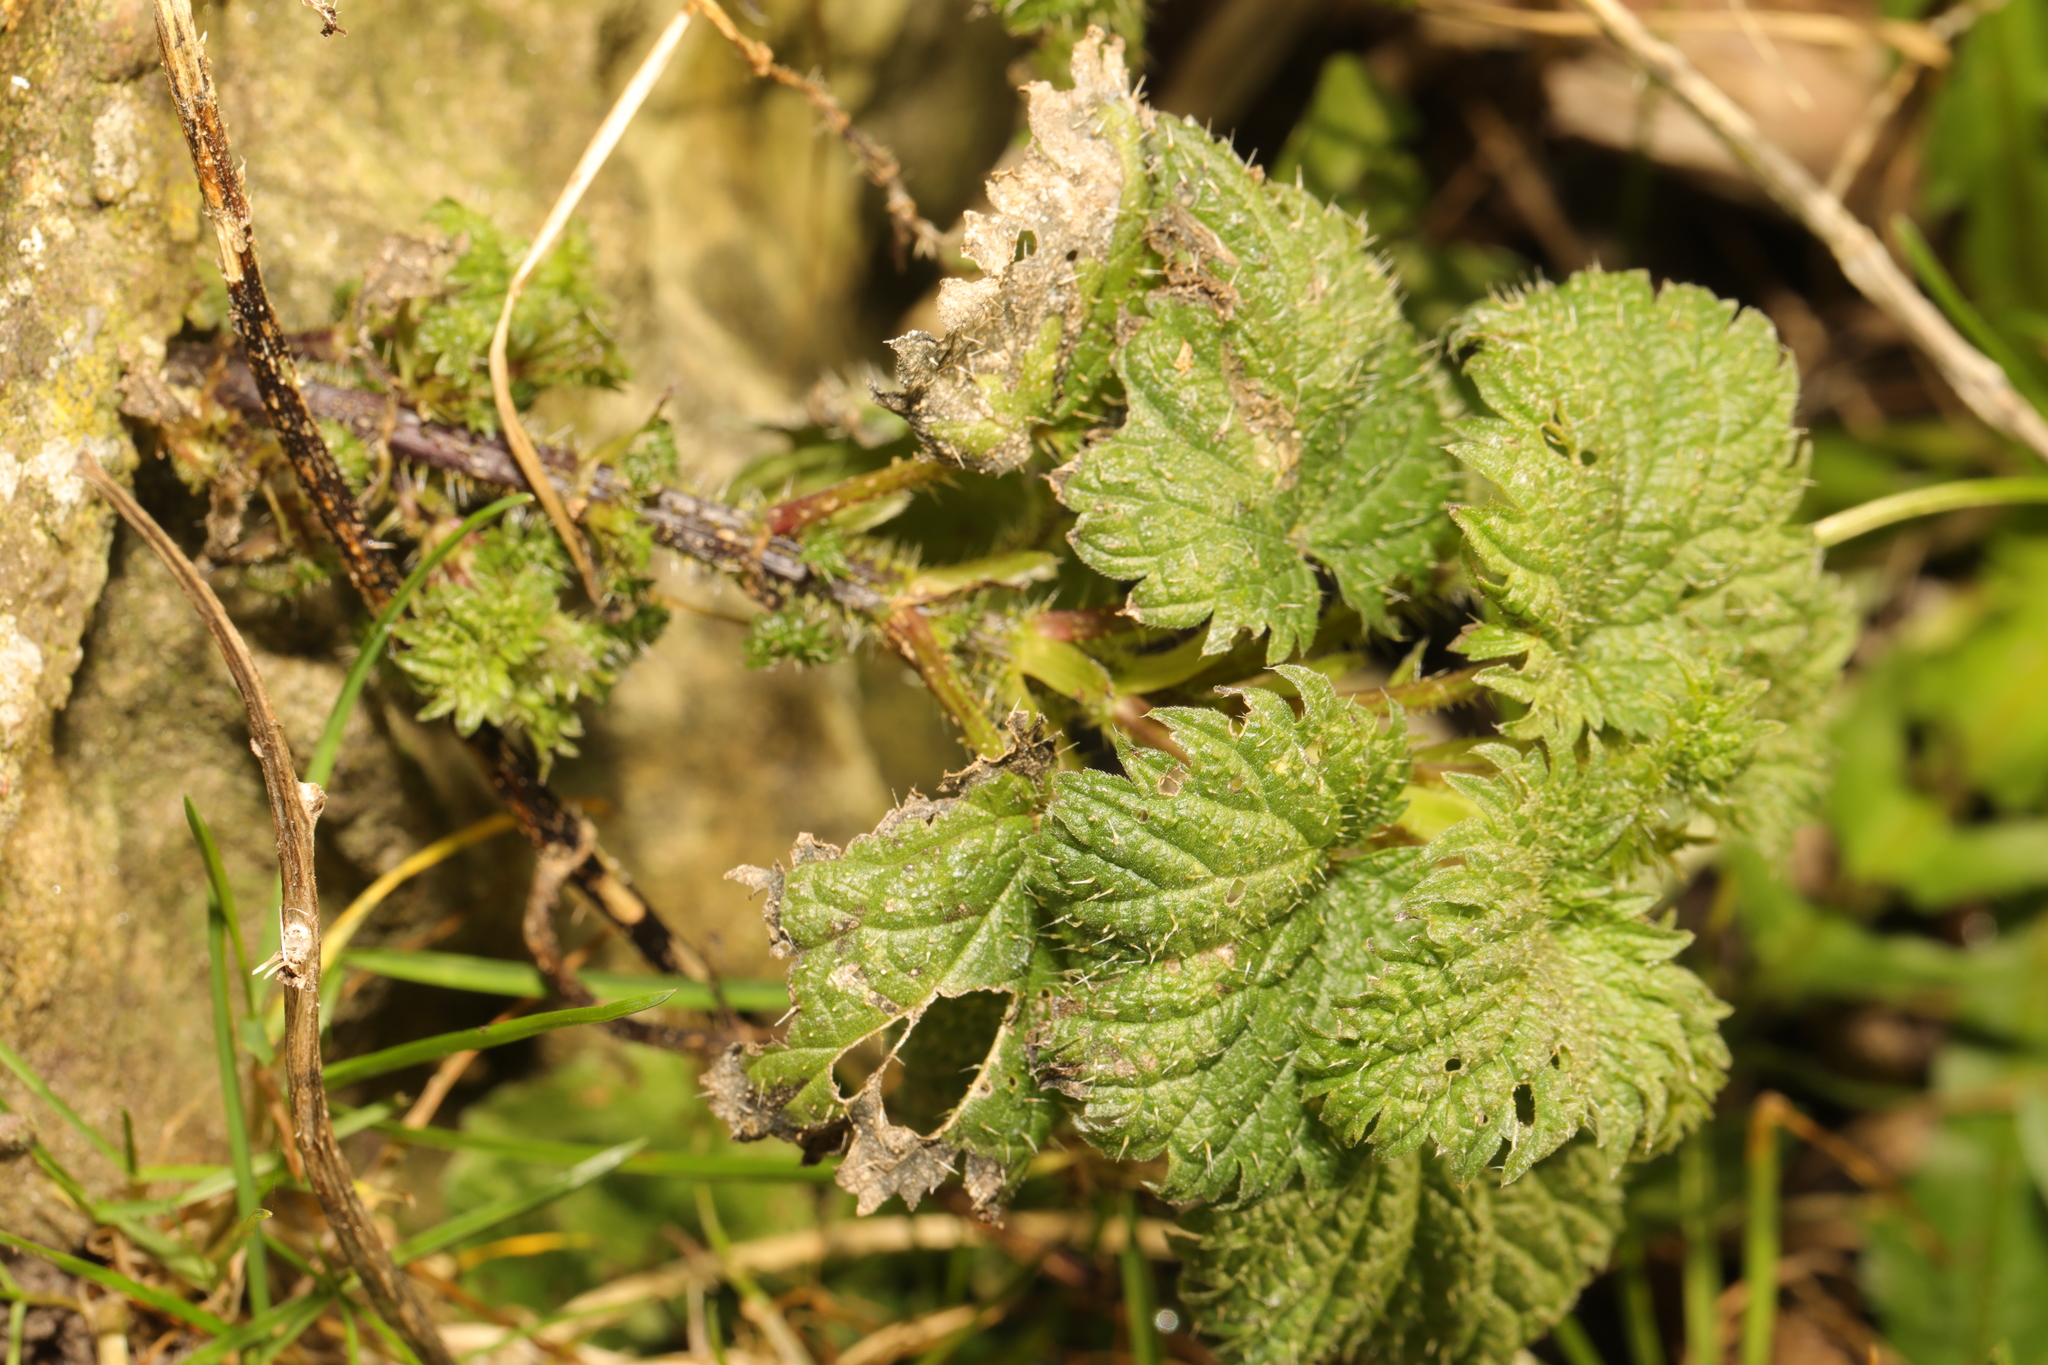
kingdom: Plantae
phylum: Tracheophyta
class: Magnoliopsida
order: Rosales
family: Urticaceae
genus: Urtica
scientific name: Urtica dioica
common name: Common nettle
